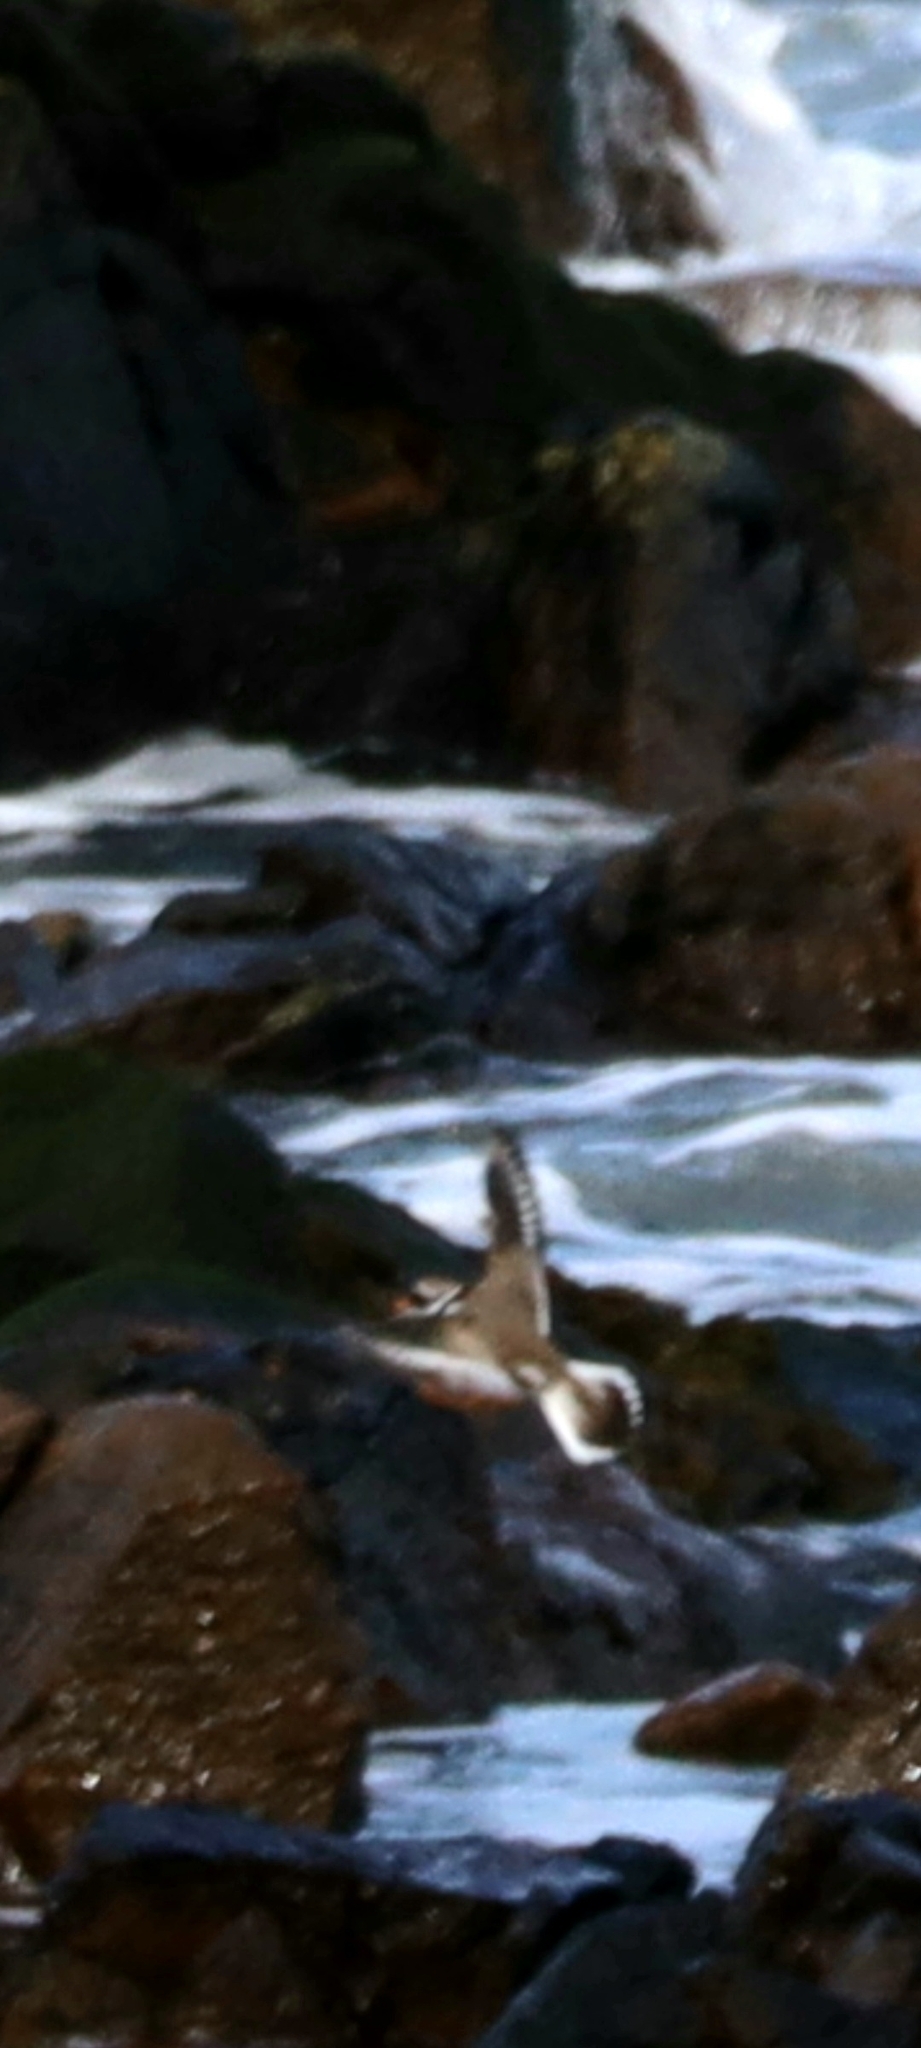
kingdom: Animalia
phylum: Chordata
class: Aves
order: Charadriiformes
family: Charadriidae
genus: Charadrius
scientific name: Charadrius hiaticula
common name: Common ringed plover
